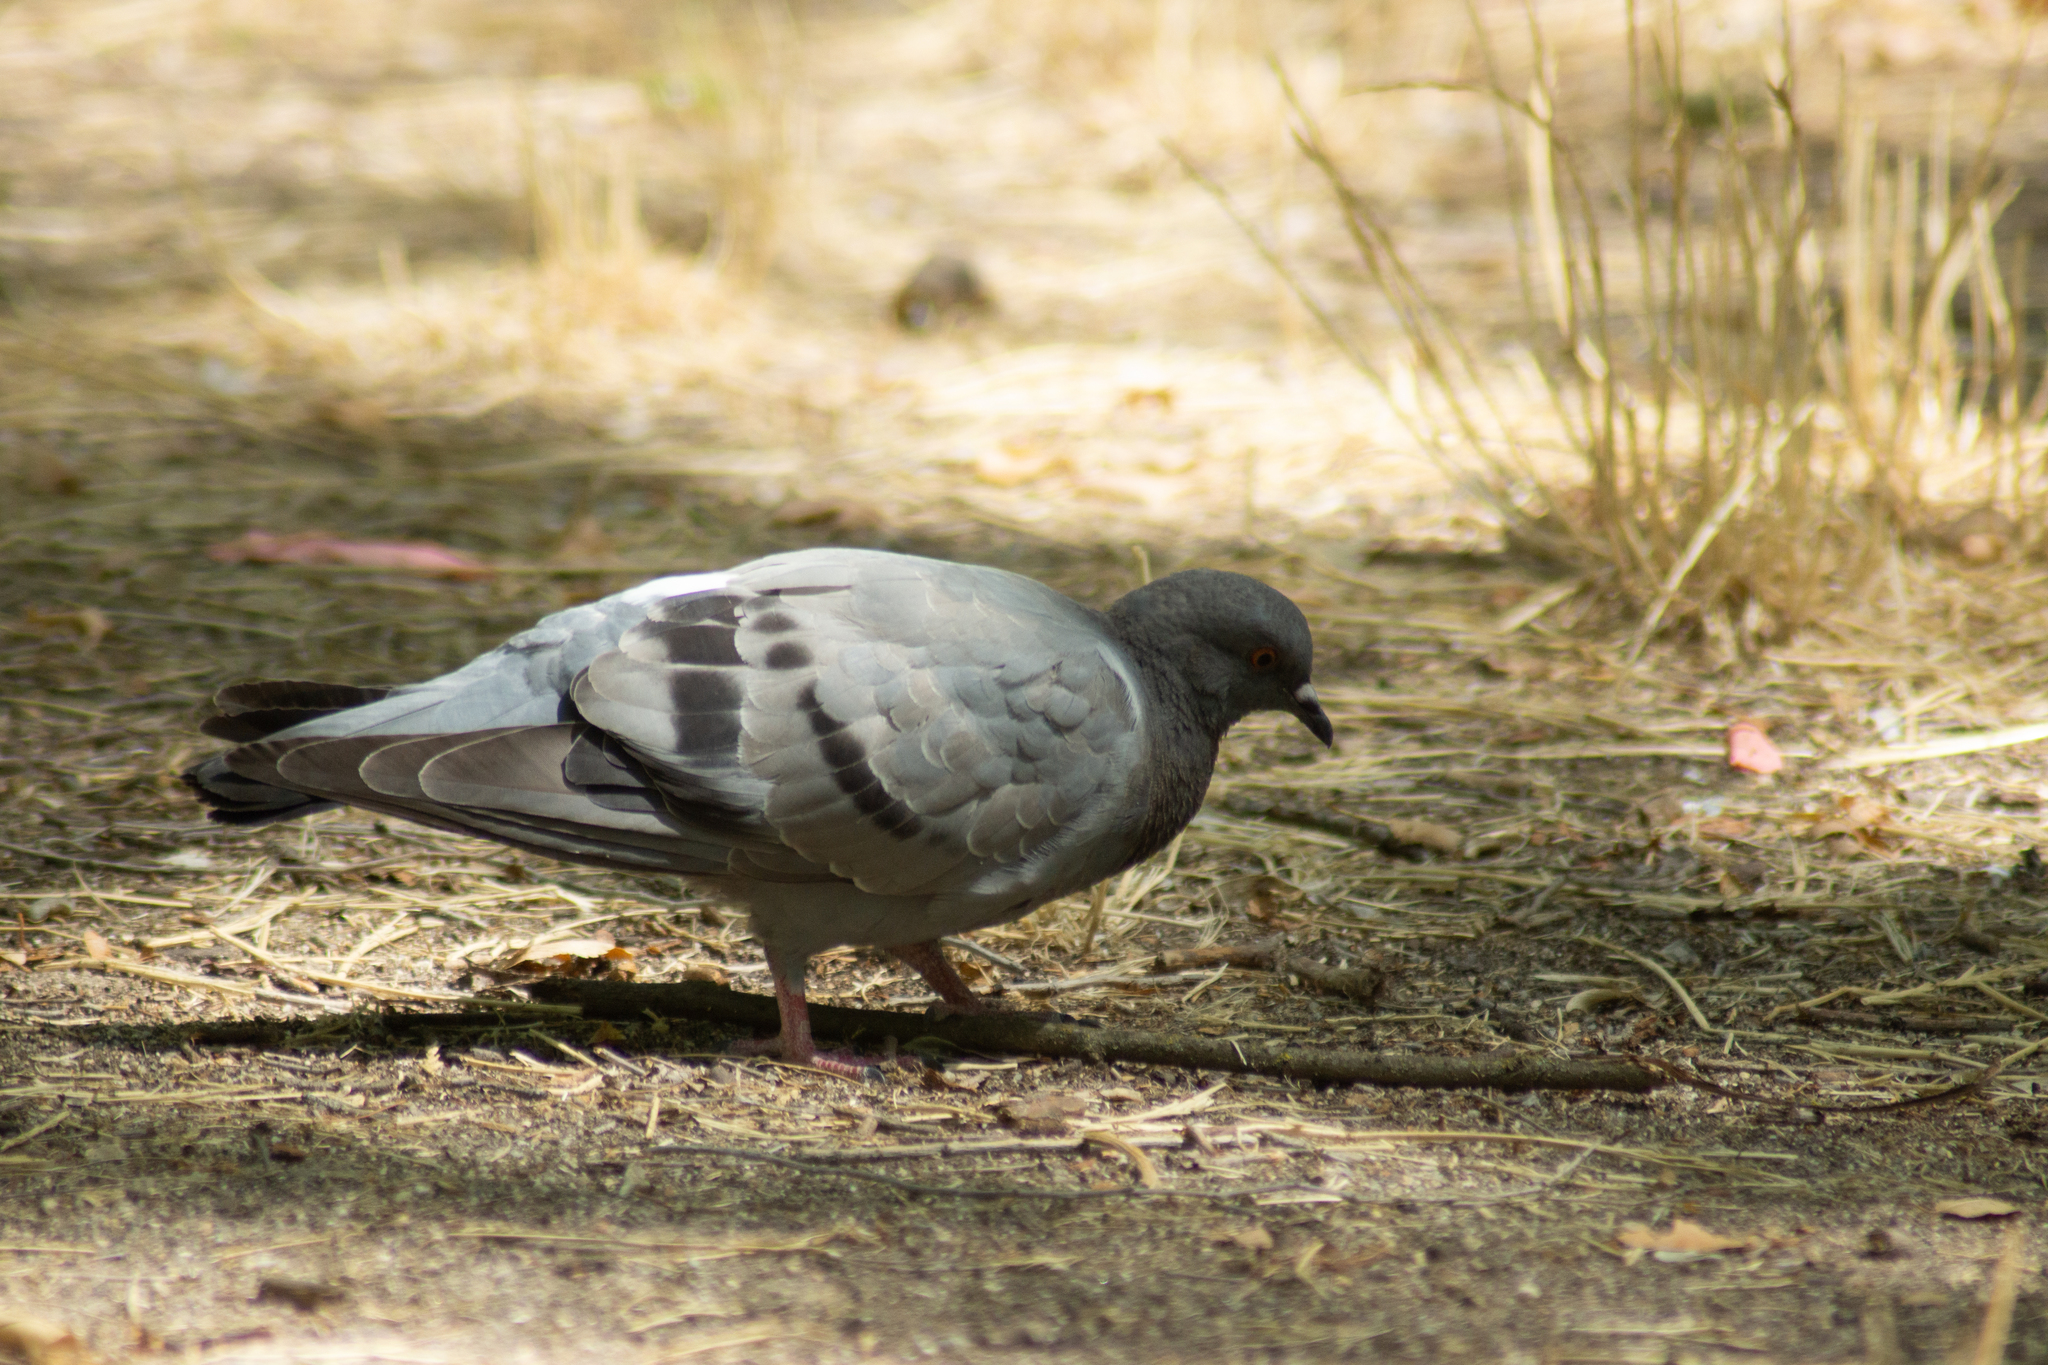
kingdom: Animalia
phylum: Chordata
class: Aves
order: Columbiformes
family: Columbidae
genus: Columba
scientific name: Columba livia
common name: Rock pigeon
